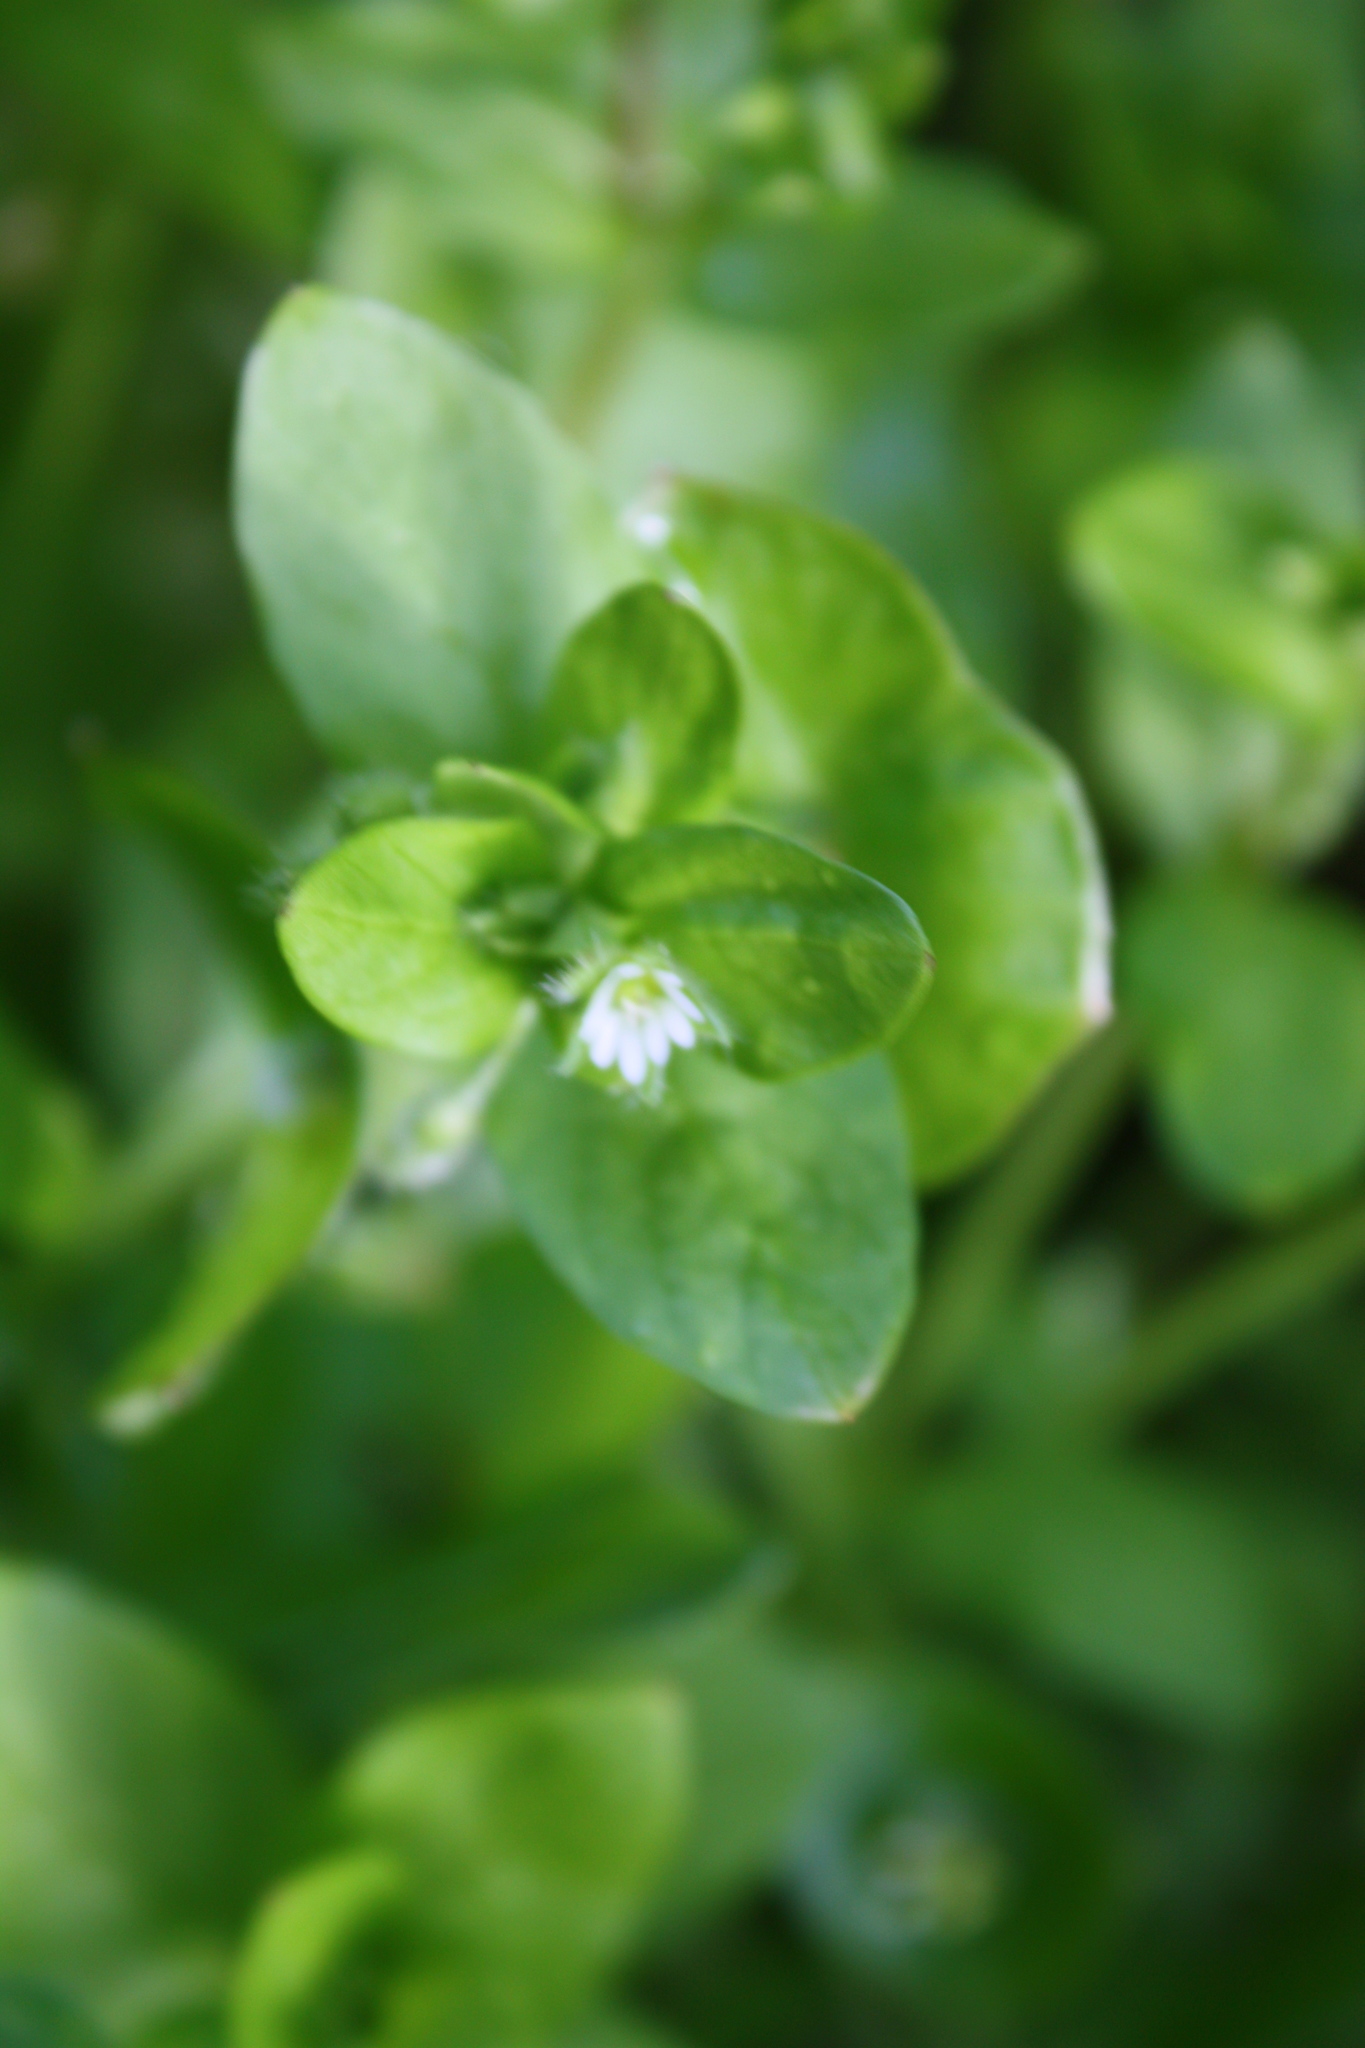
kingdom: Plantae
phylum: Tracheophyta
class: Magnoliopsida
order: Caryophyllales
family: Caryophyllaceae
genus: Stellaria
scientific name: Stellaria media
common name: Common chickweed
